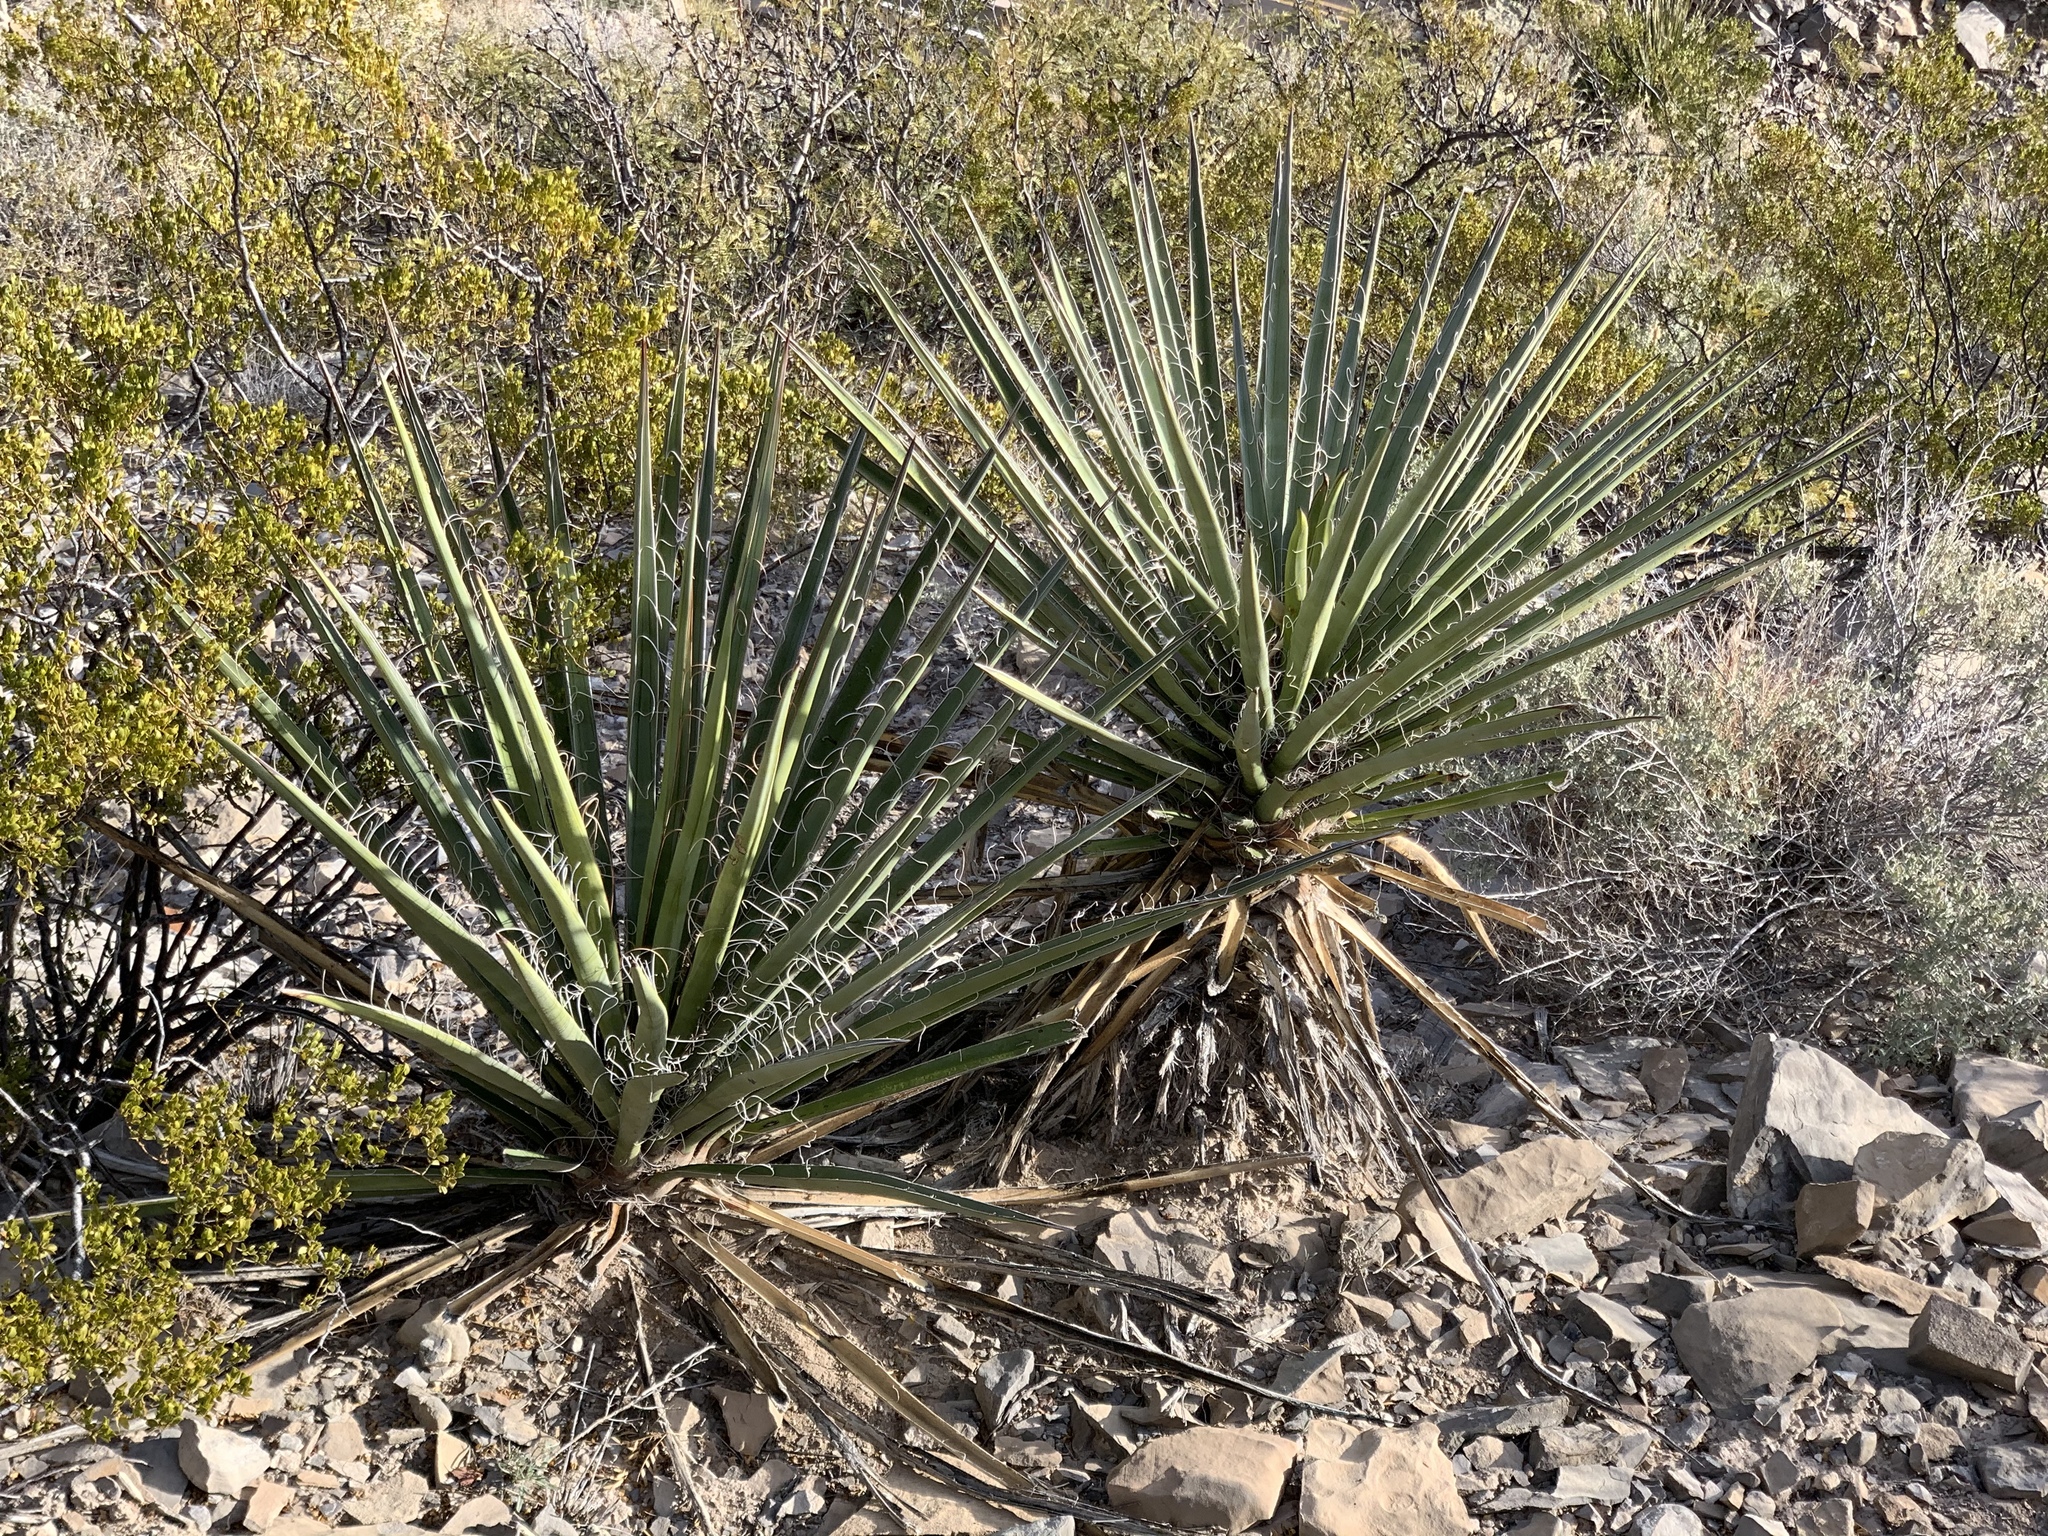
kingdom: Plantae
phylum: Tracheophyta
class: Liliopsida
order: Asparagales
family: Asparagaceae
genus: Yucca
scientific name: Yucca treculiana
